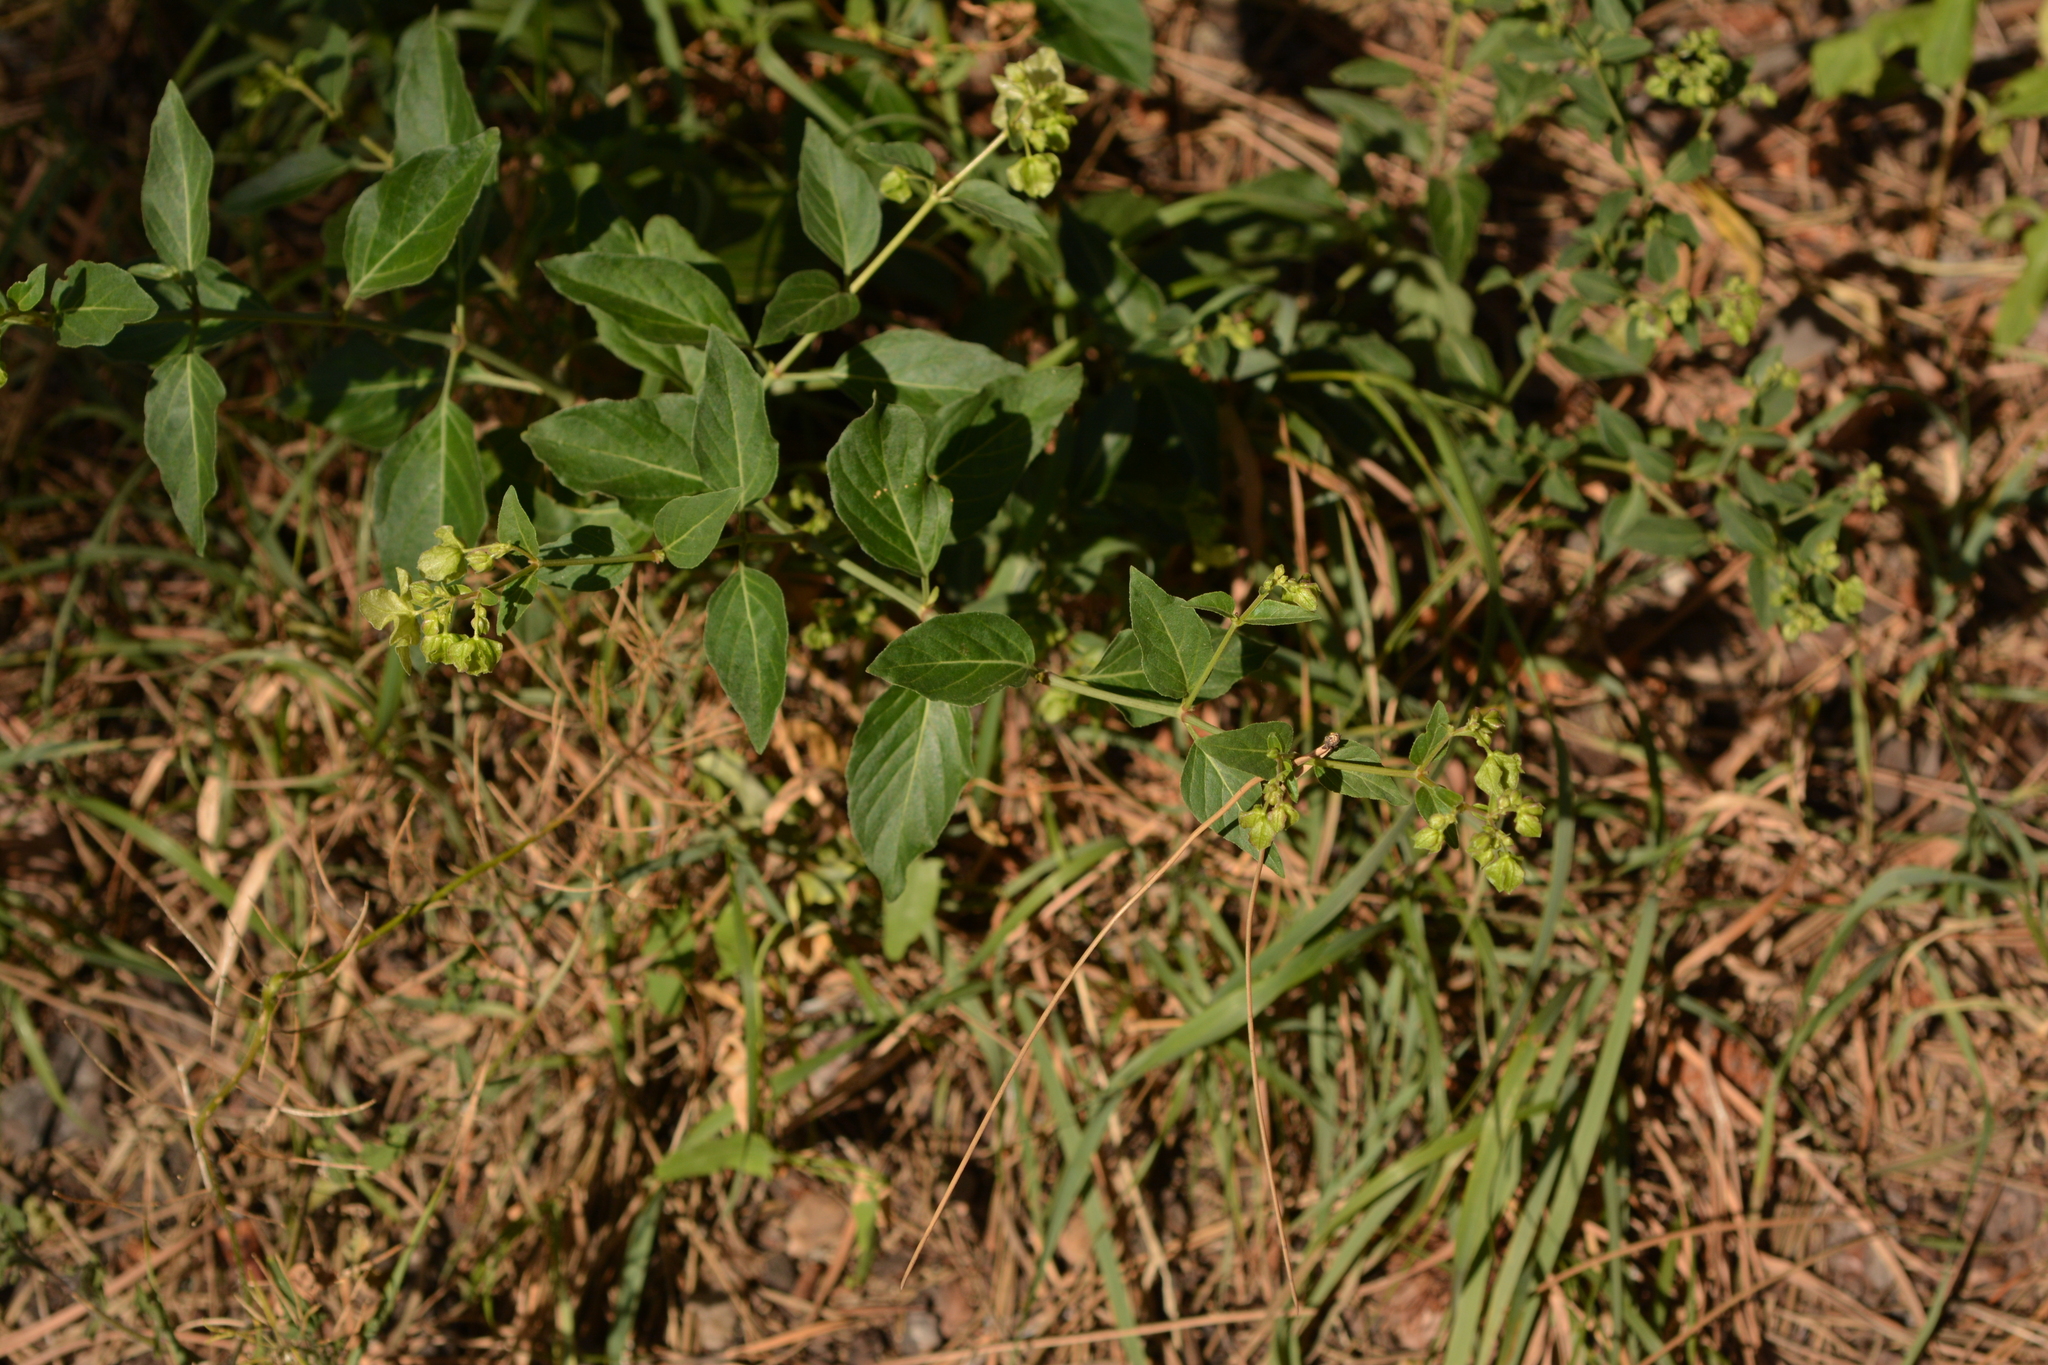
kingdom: Plantae
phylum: Tracheophyta
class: Magnoliopsida
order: Caryophyllales
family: Nyctaginaceae
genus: Mirabilis
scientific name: Mirabilis nyctaginea
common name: Umbrella wort
